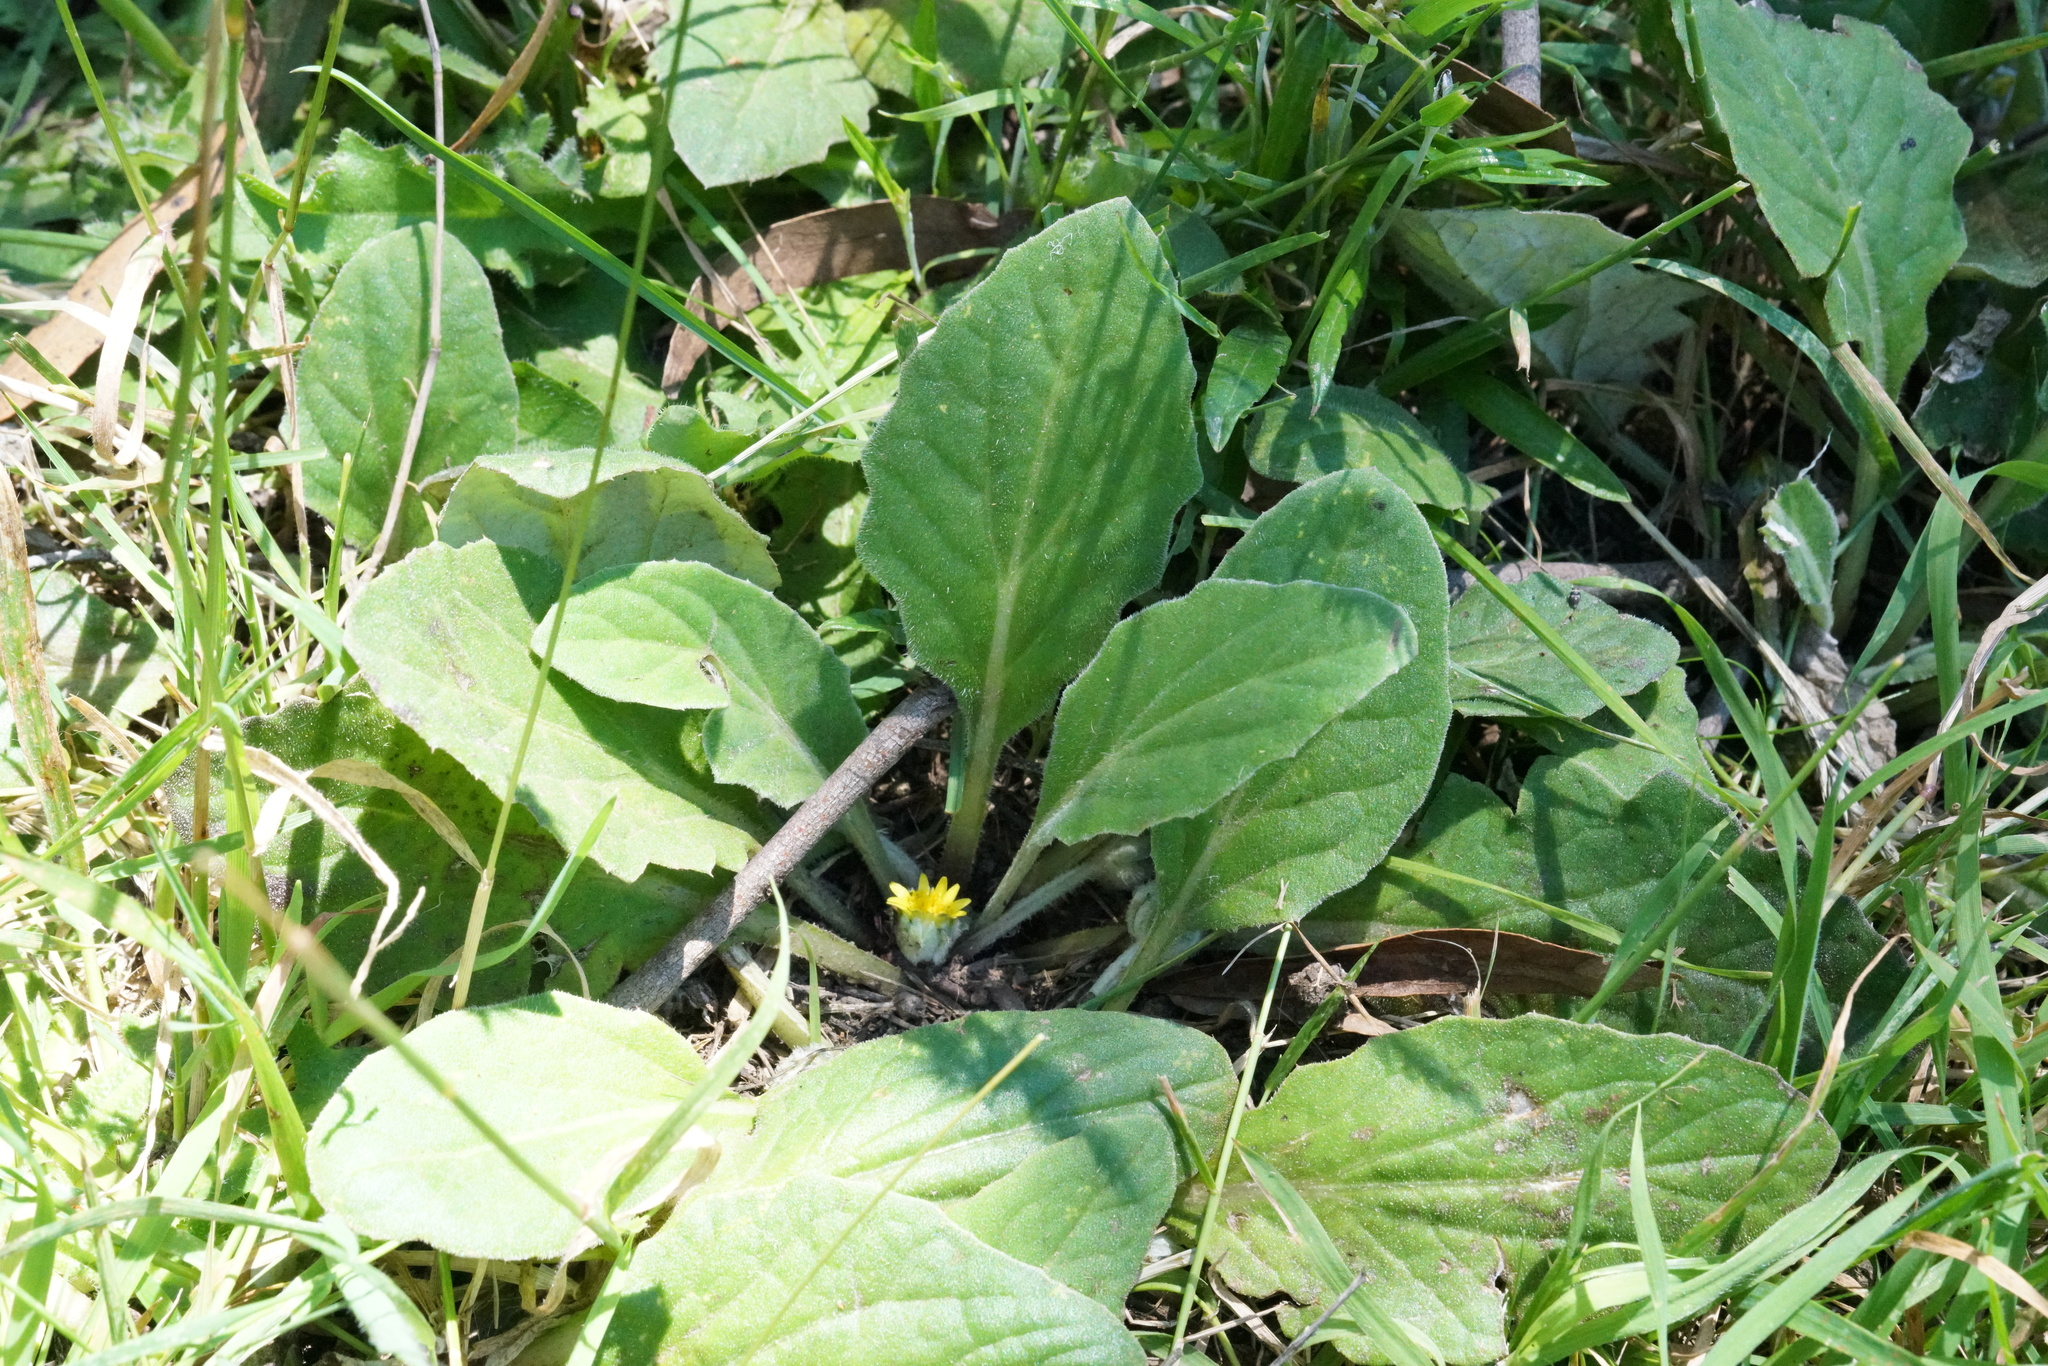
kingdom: Plantae
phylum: Tracheophyta
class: Magnoliopsida
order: Asterales
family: Asteraceae
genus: Cymbonotus
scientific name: Cymbonotus preissianus
